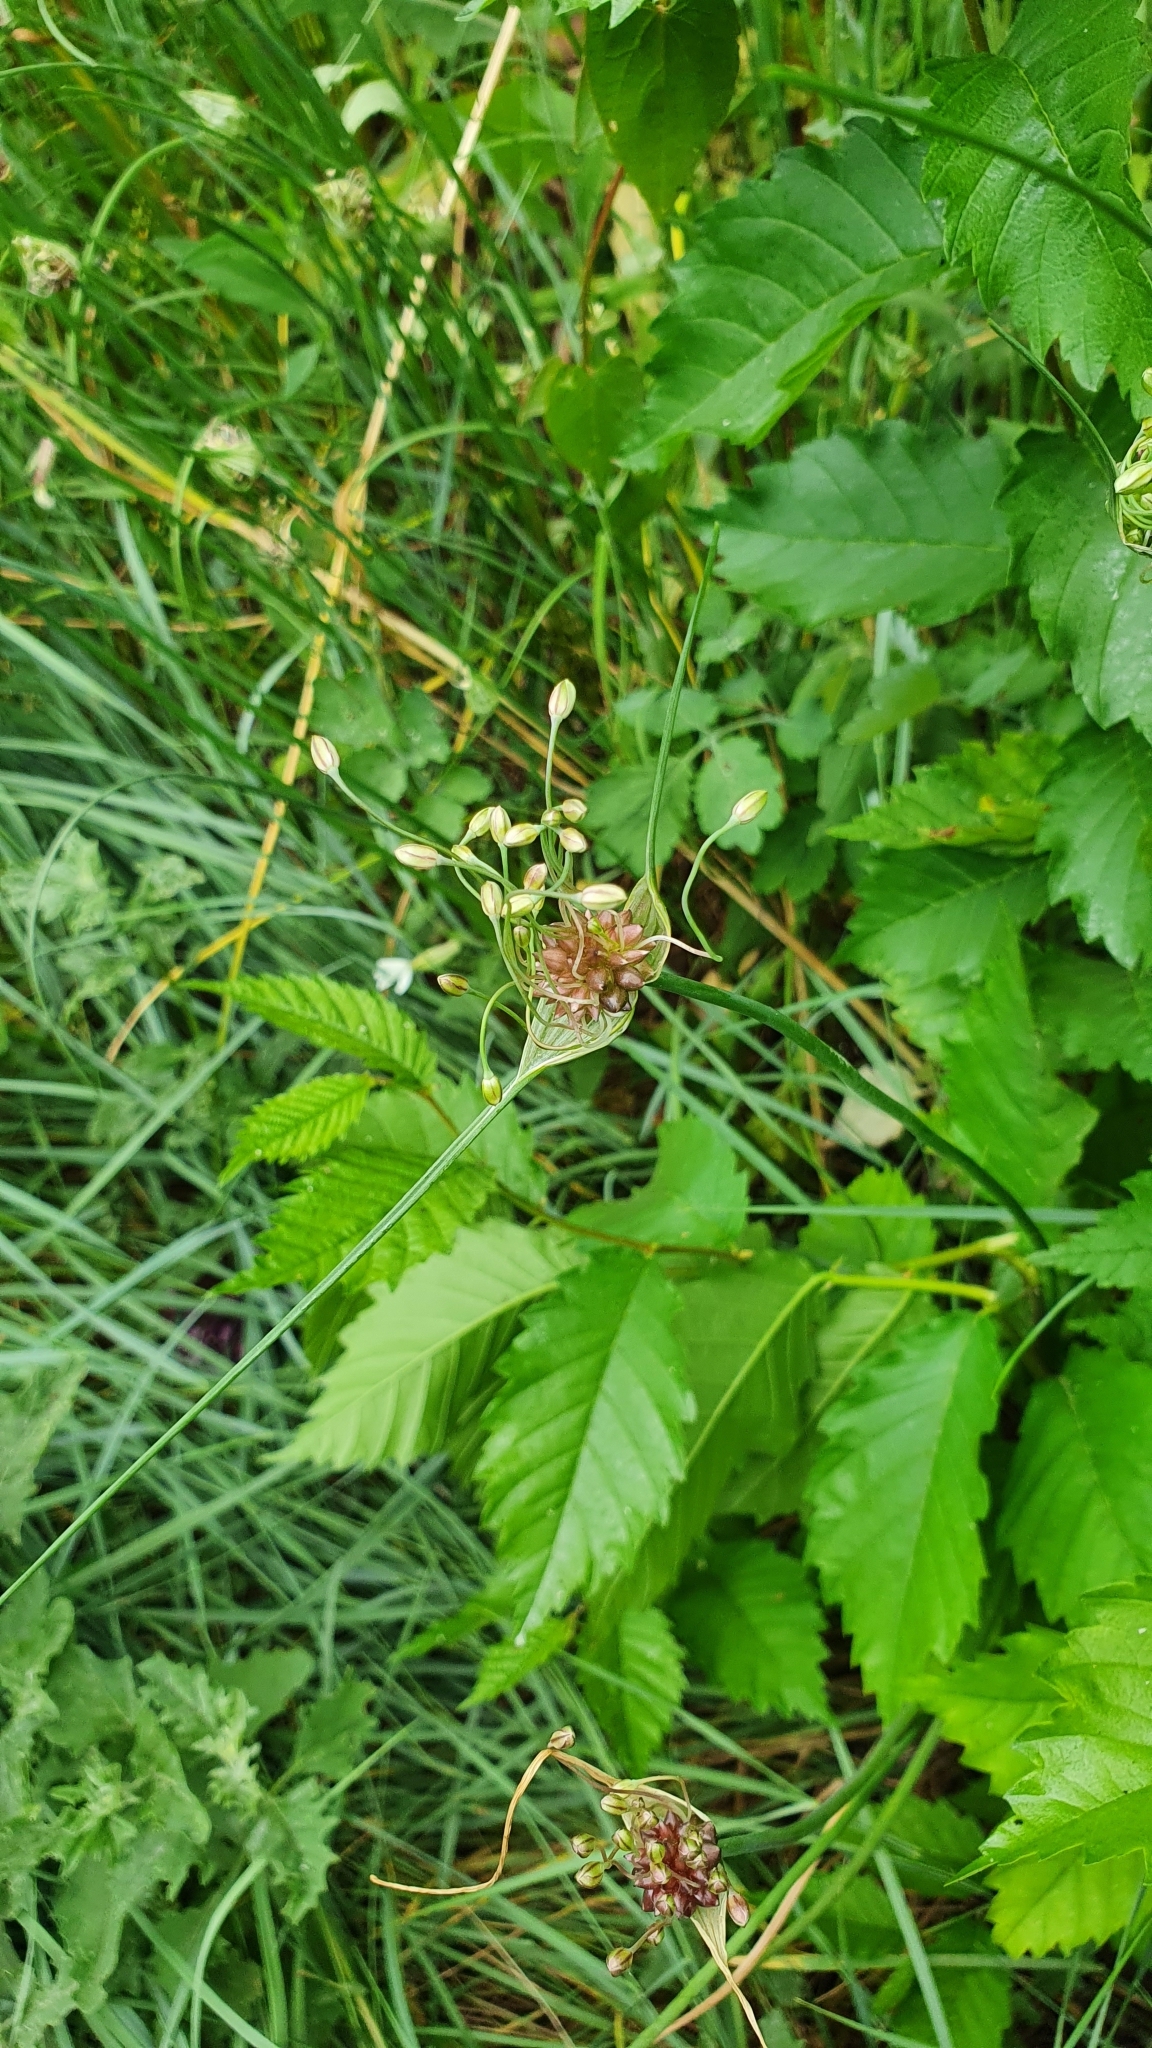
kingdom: Plantae
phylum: Tracheophyta
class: Liliopsida
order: Asparagales
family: Amaryllidaceae
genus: Allium
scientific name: Allium oleraceum
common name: Field garlic
